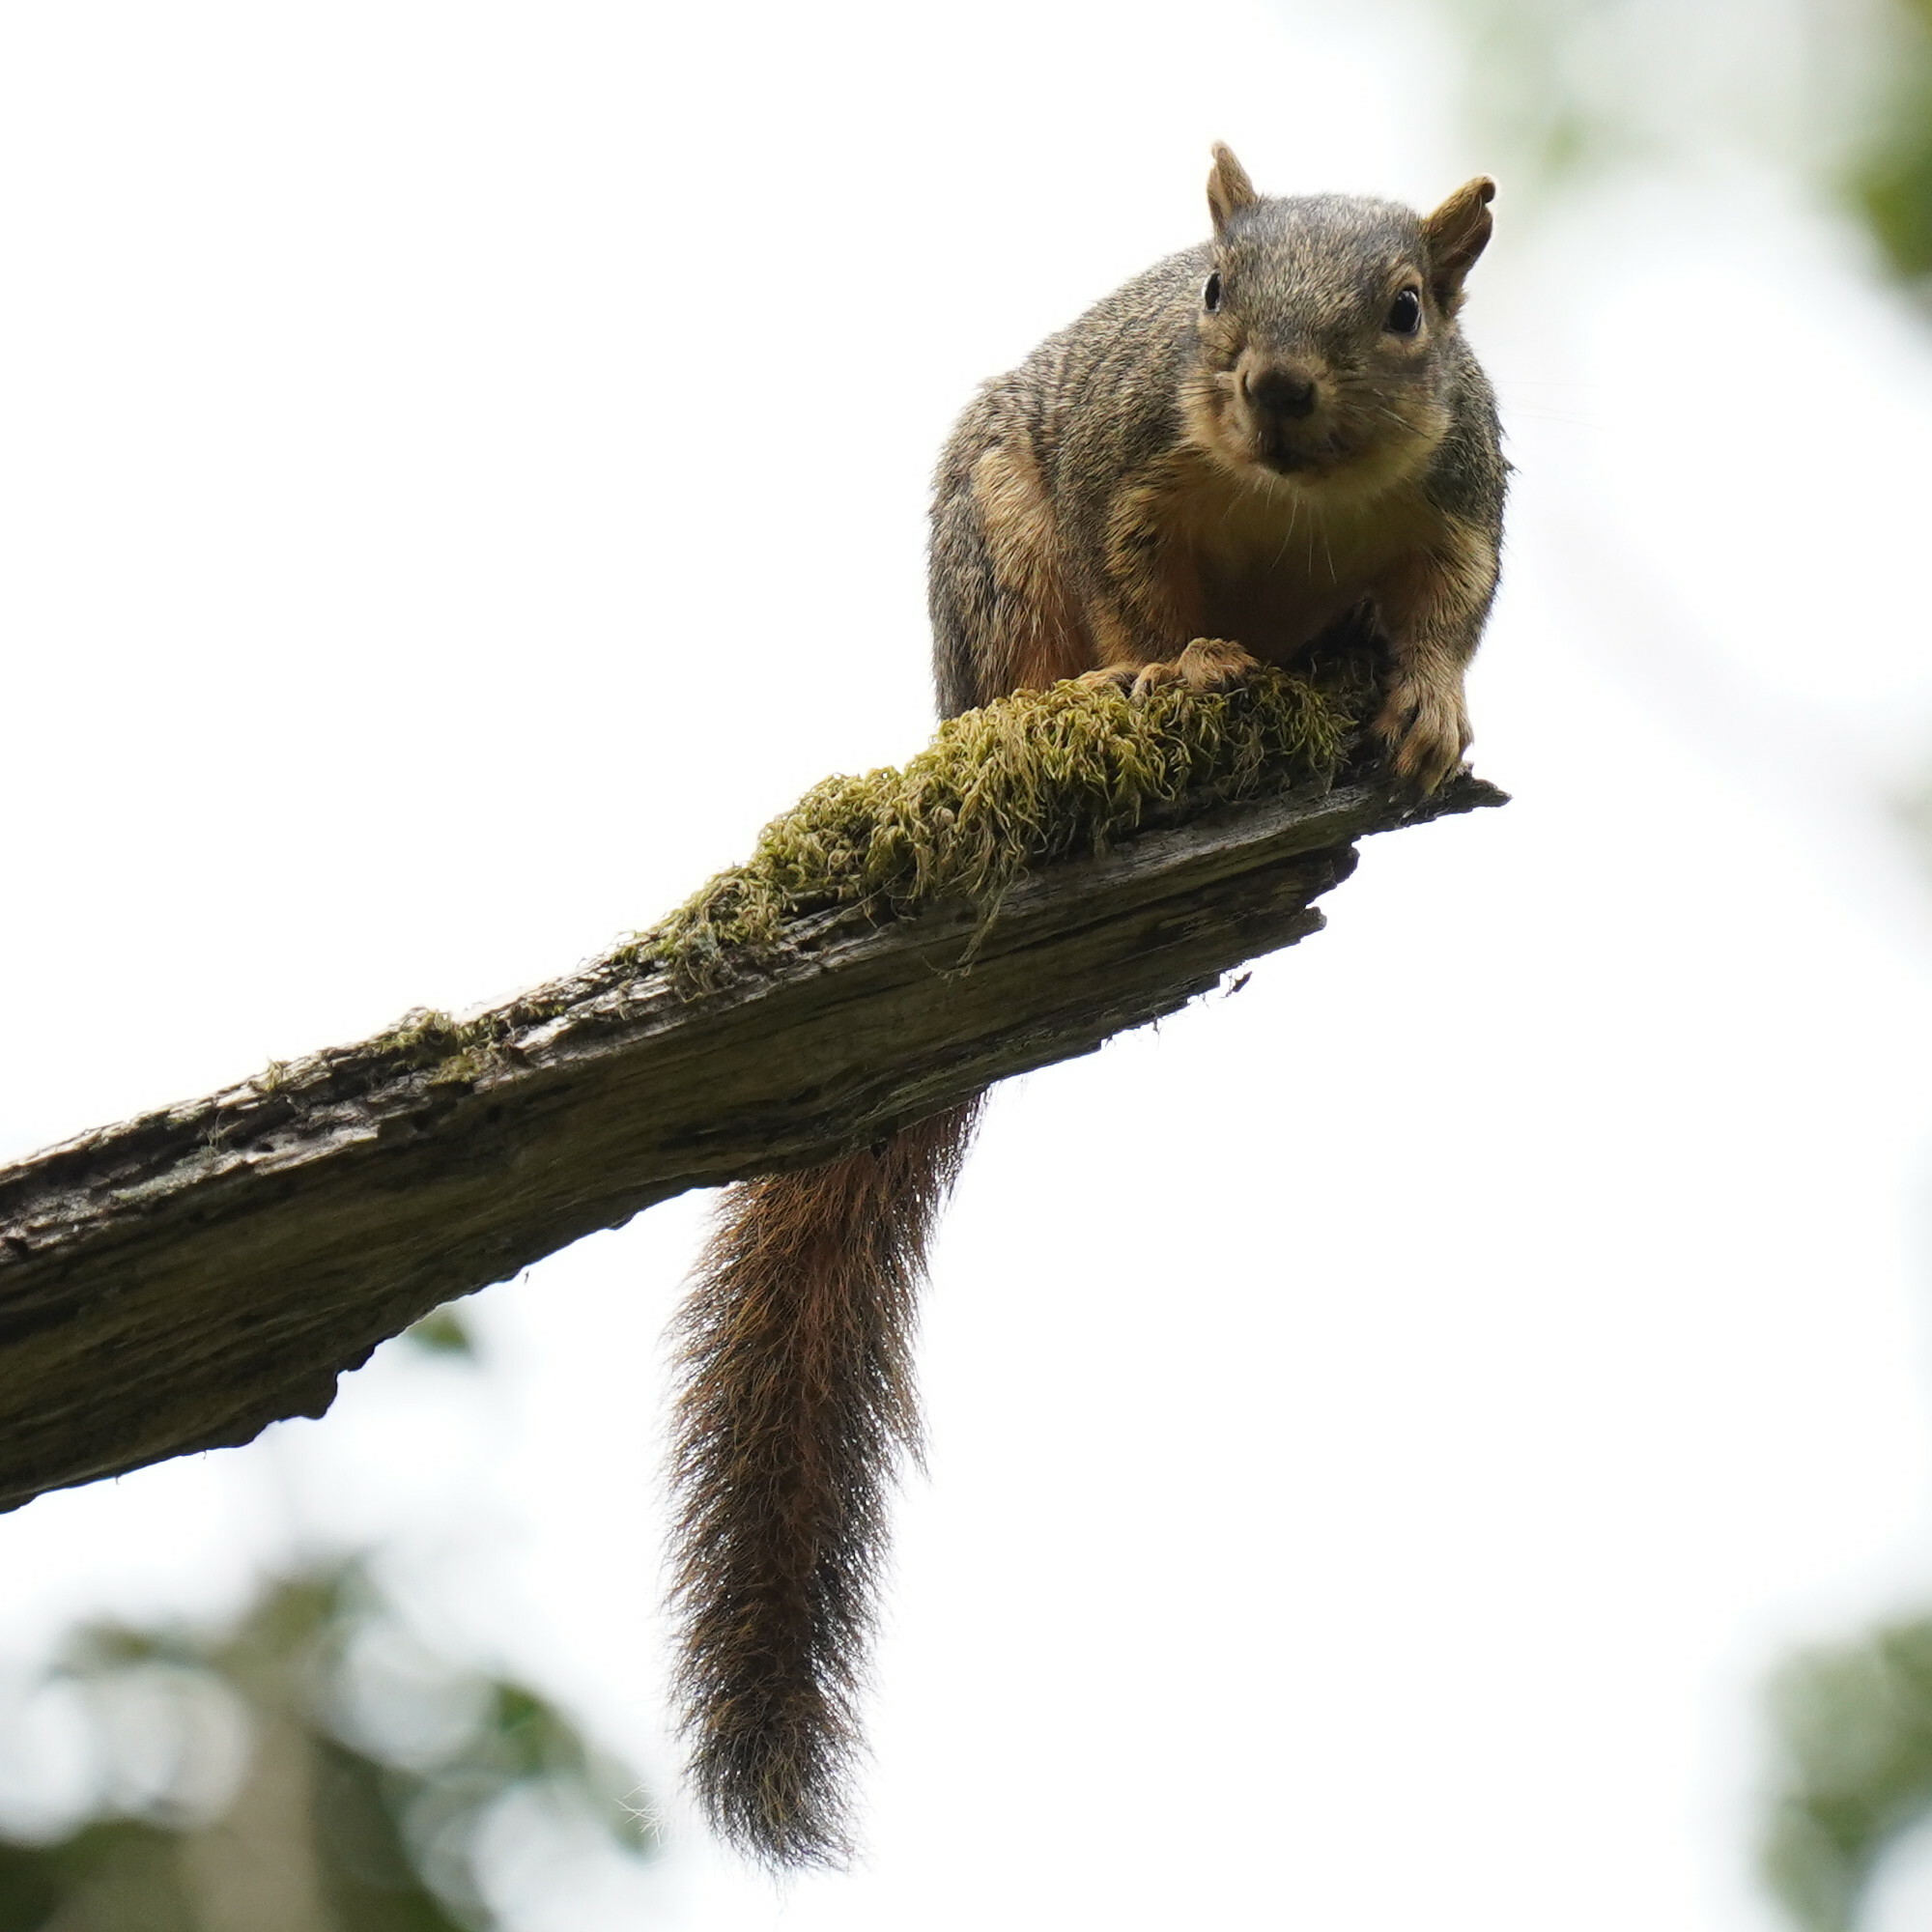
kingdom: Animalia
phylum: Chordata
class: Mammalia
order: Rodentia
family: Sciuridae
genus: Sciurus
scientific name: Sciurus niger
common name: Fox squirrel
